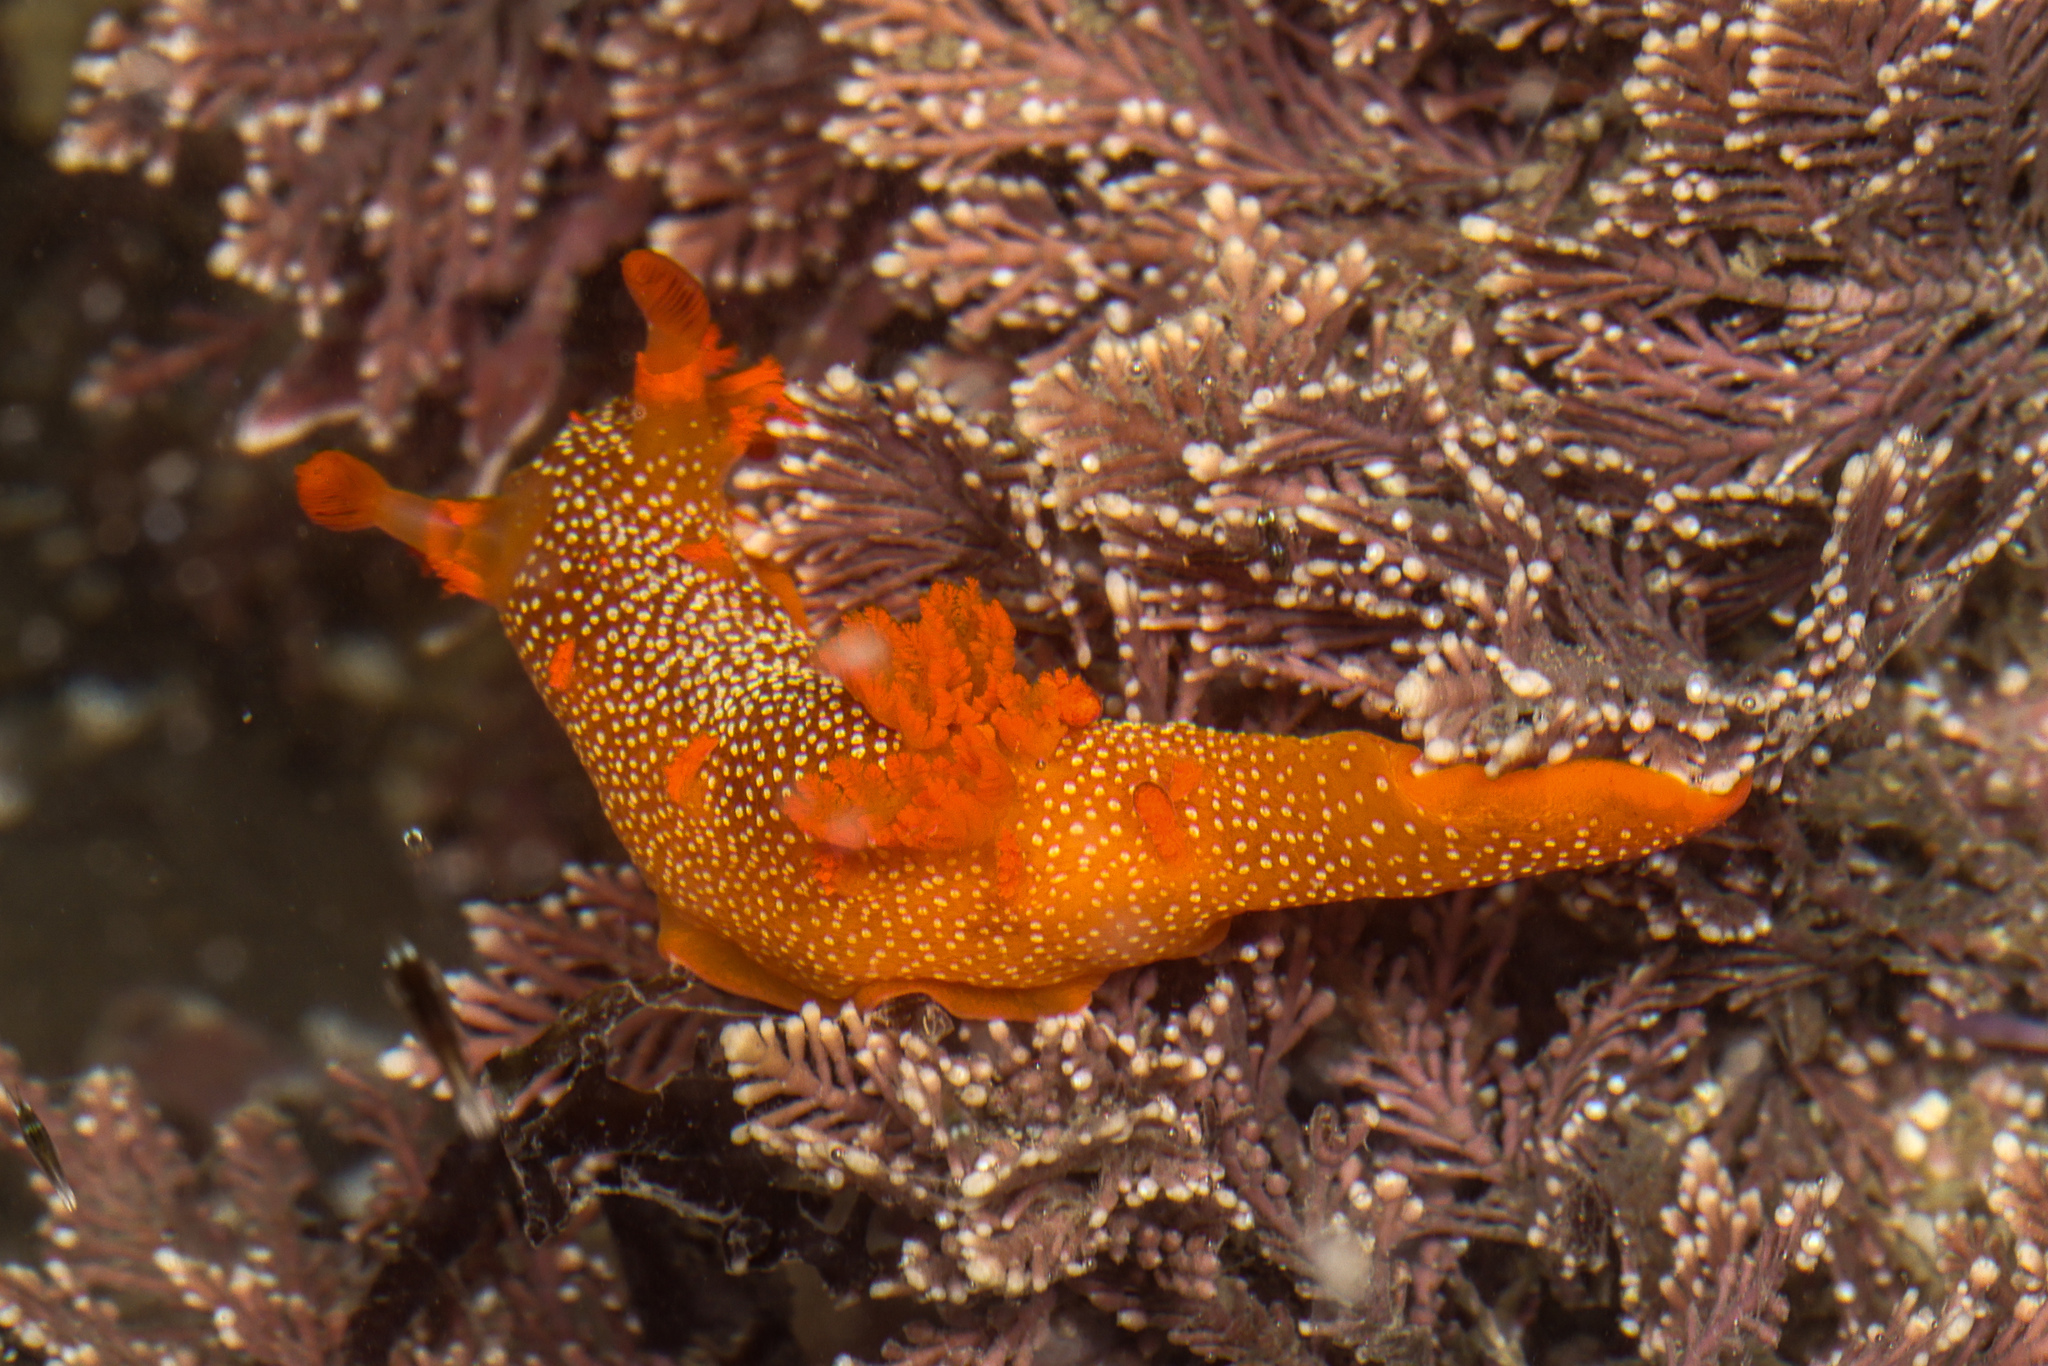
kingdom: Animalia
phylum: Mollusca
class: Gastropoda
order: Nudibranchia
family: Polyceridae
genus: Triopha
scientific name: Triopha maculata
